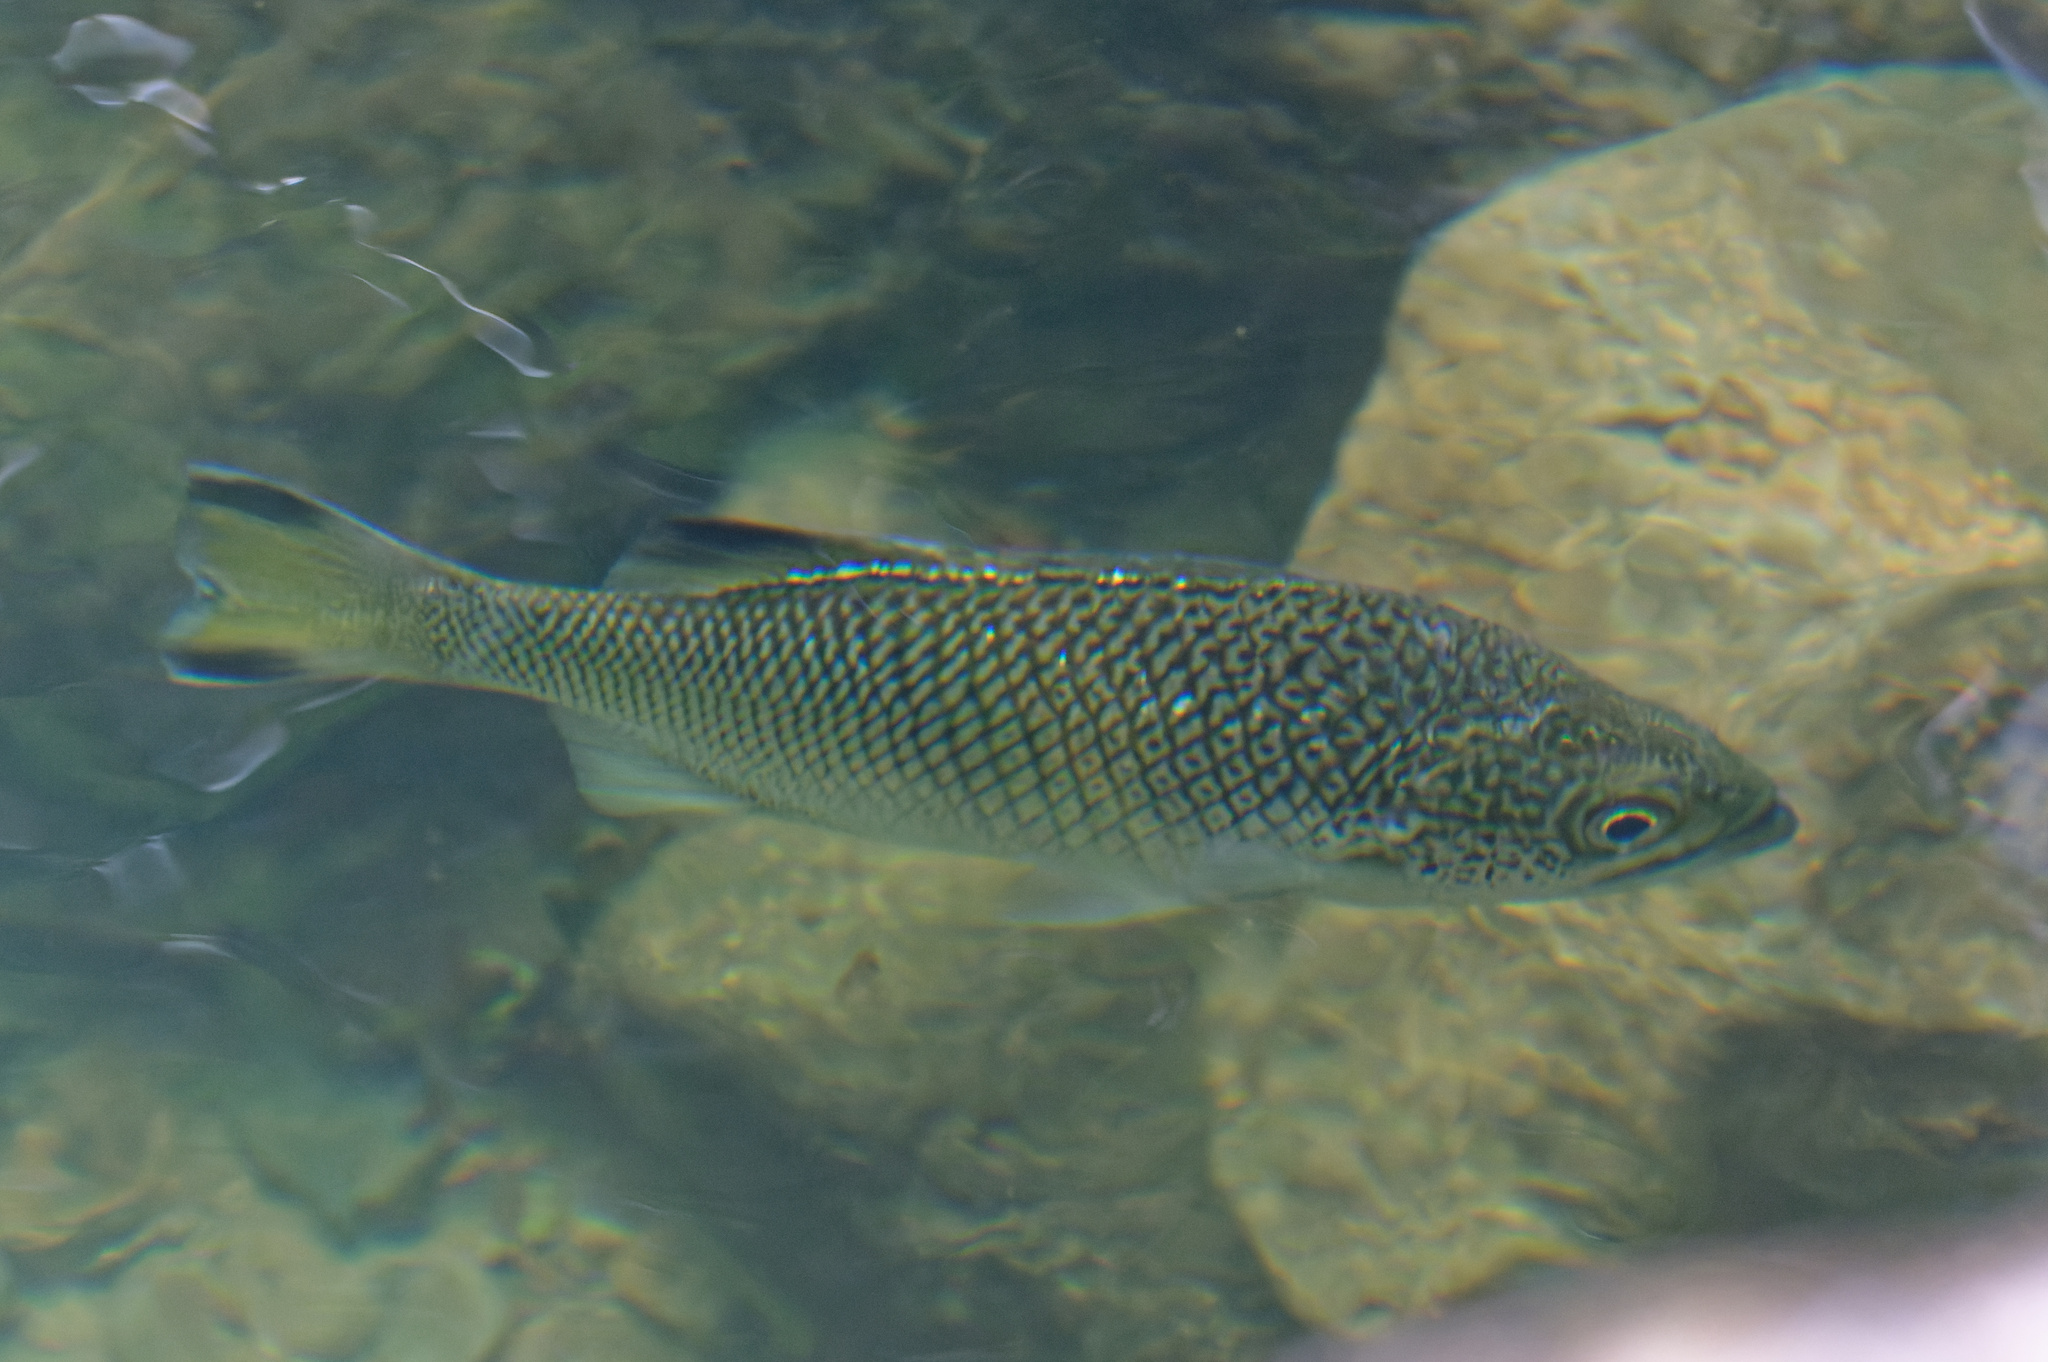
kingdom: Animalia
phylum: Chordata
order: Perciformes
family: Kuhliidae
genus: Kuhlia
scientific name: Kuhlia rupestris
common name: Rock flagtail
